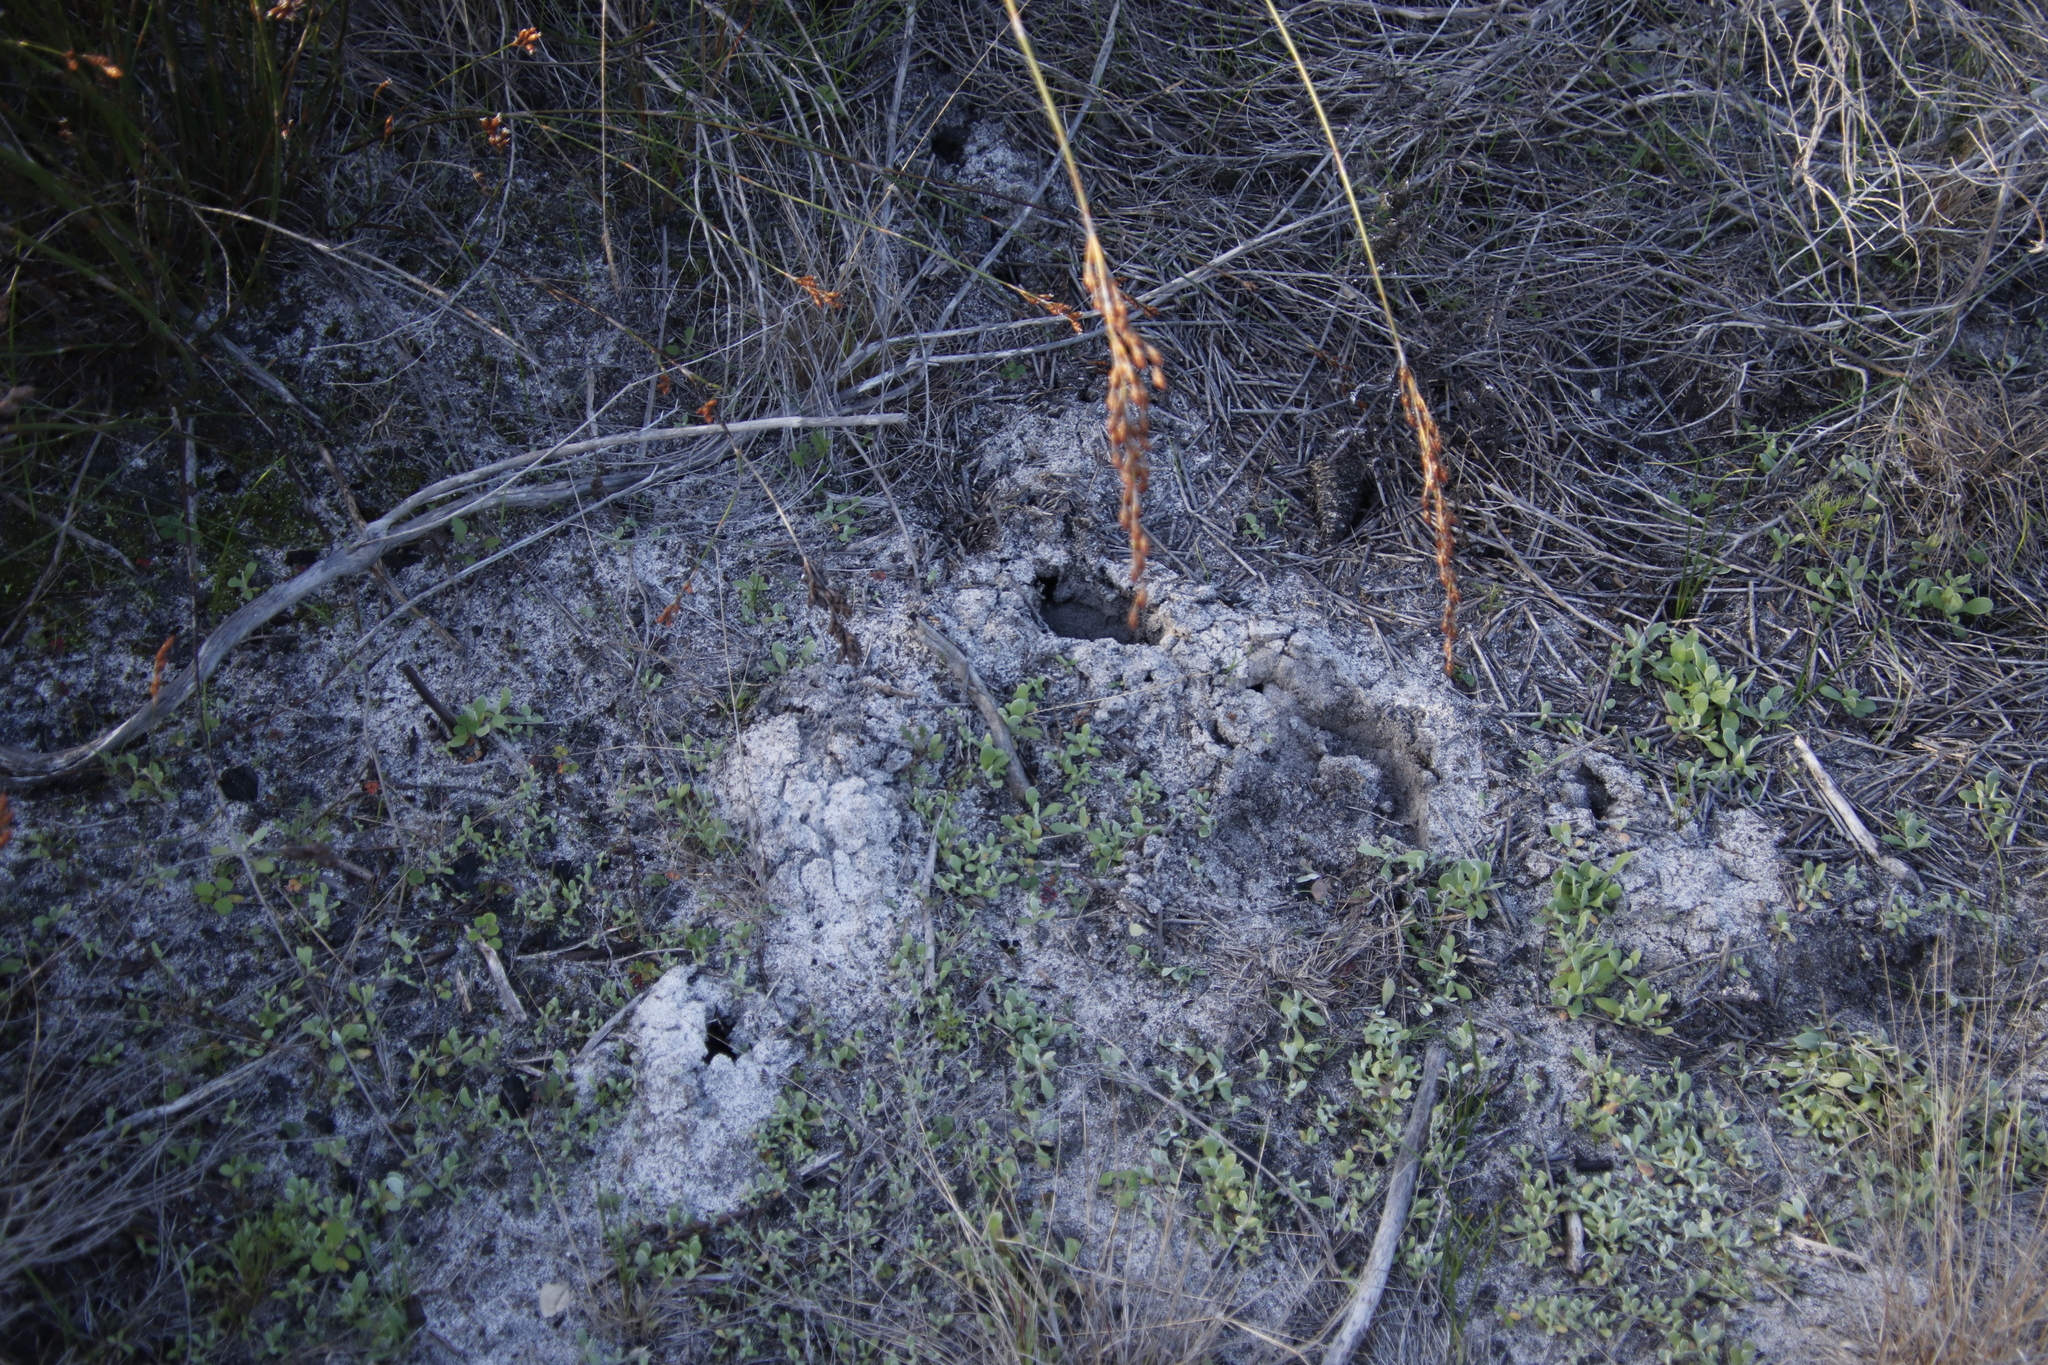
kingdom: Animalia
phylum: Chordata
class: Mammalia
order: Afrosoricida
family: Chrysochloridae
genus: Chrysochloris
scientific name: Chrysochloris asiatica
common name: Cape golden mole
